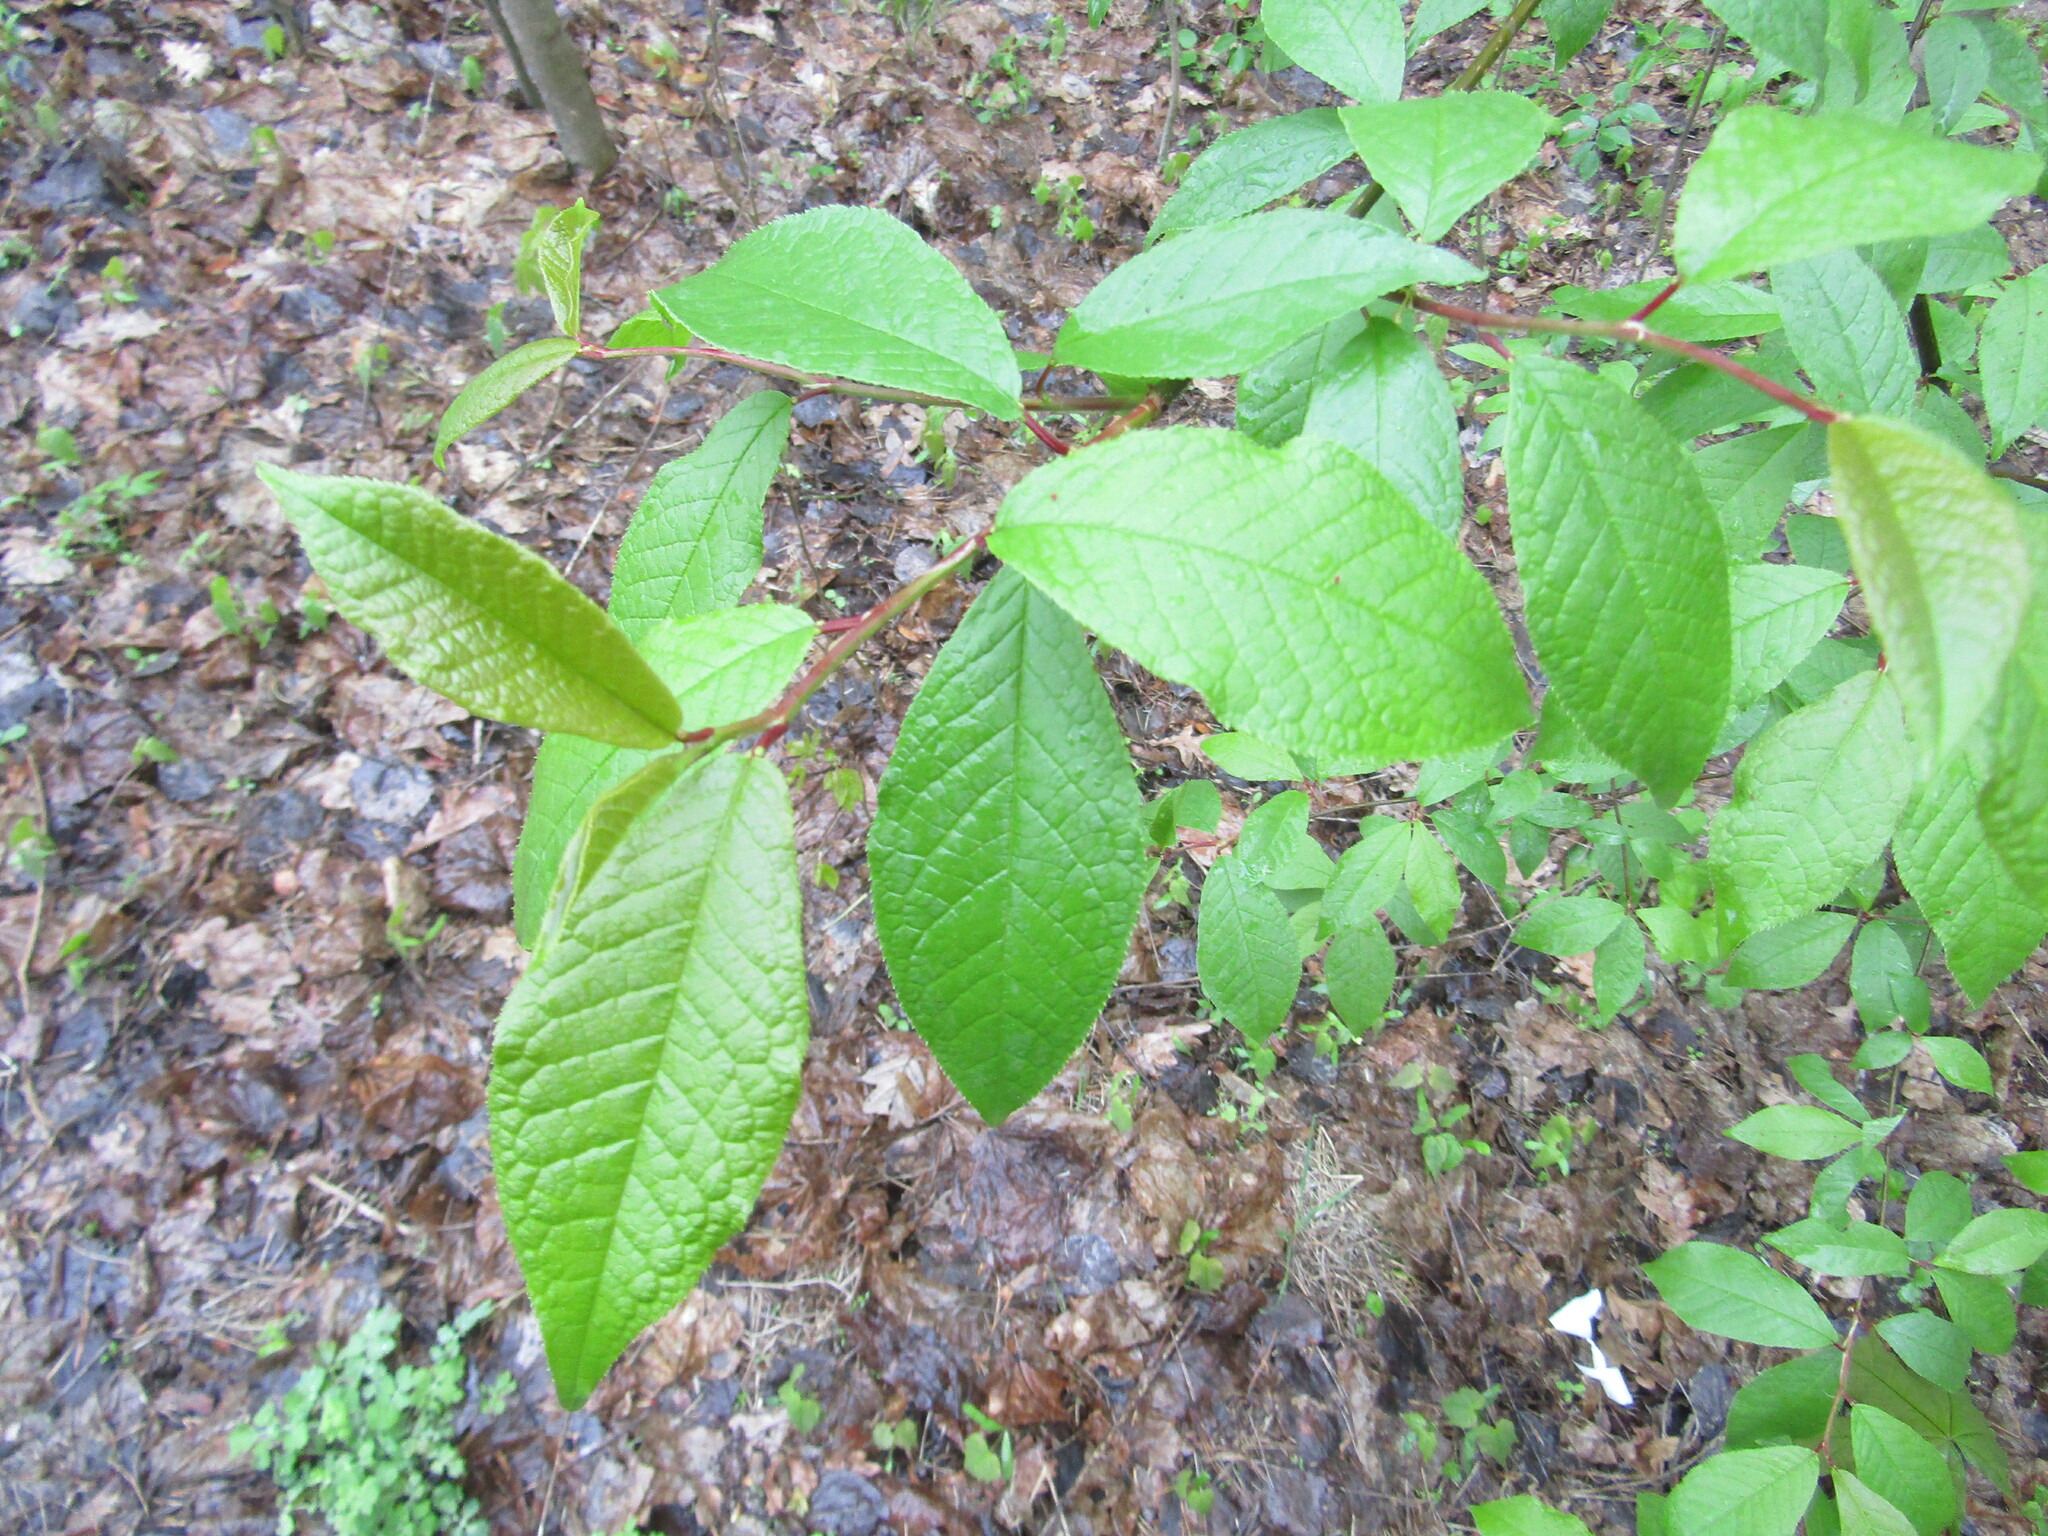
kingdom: Plantae
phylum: Tracheophyta
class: Magnoliopsida
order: Rosales
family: Rosaceae
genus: Prunus
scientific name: Prunus padus
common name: Bird cherry
